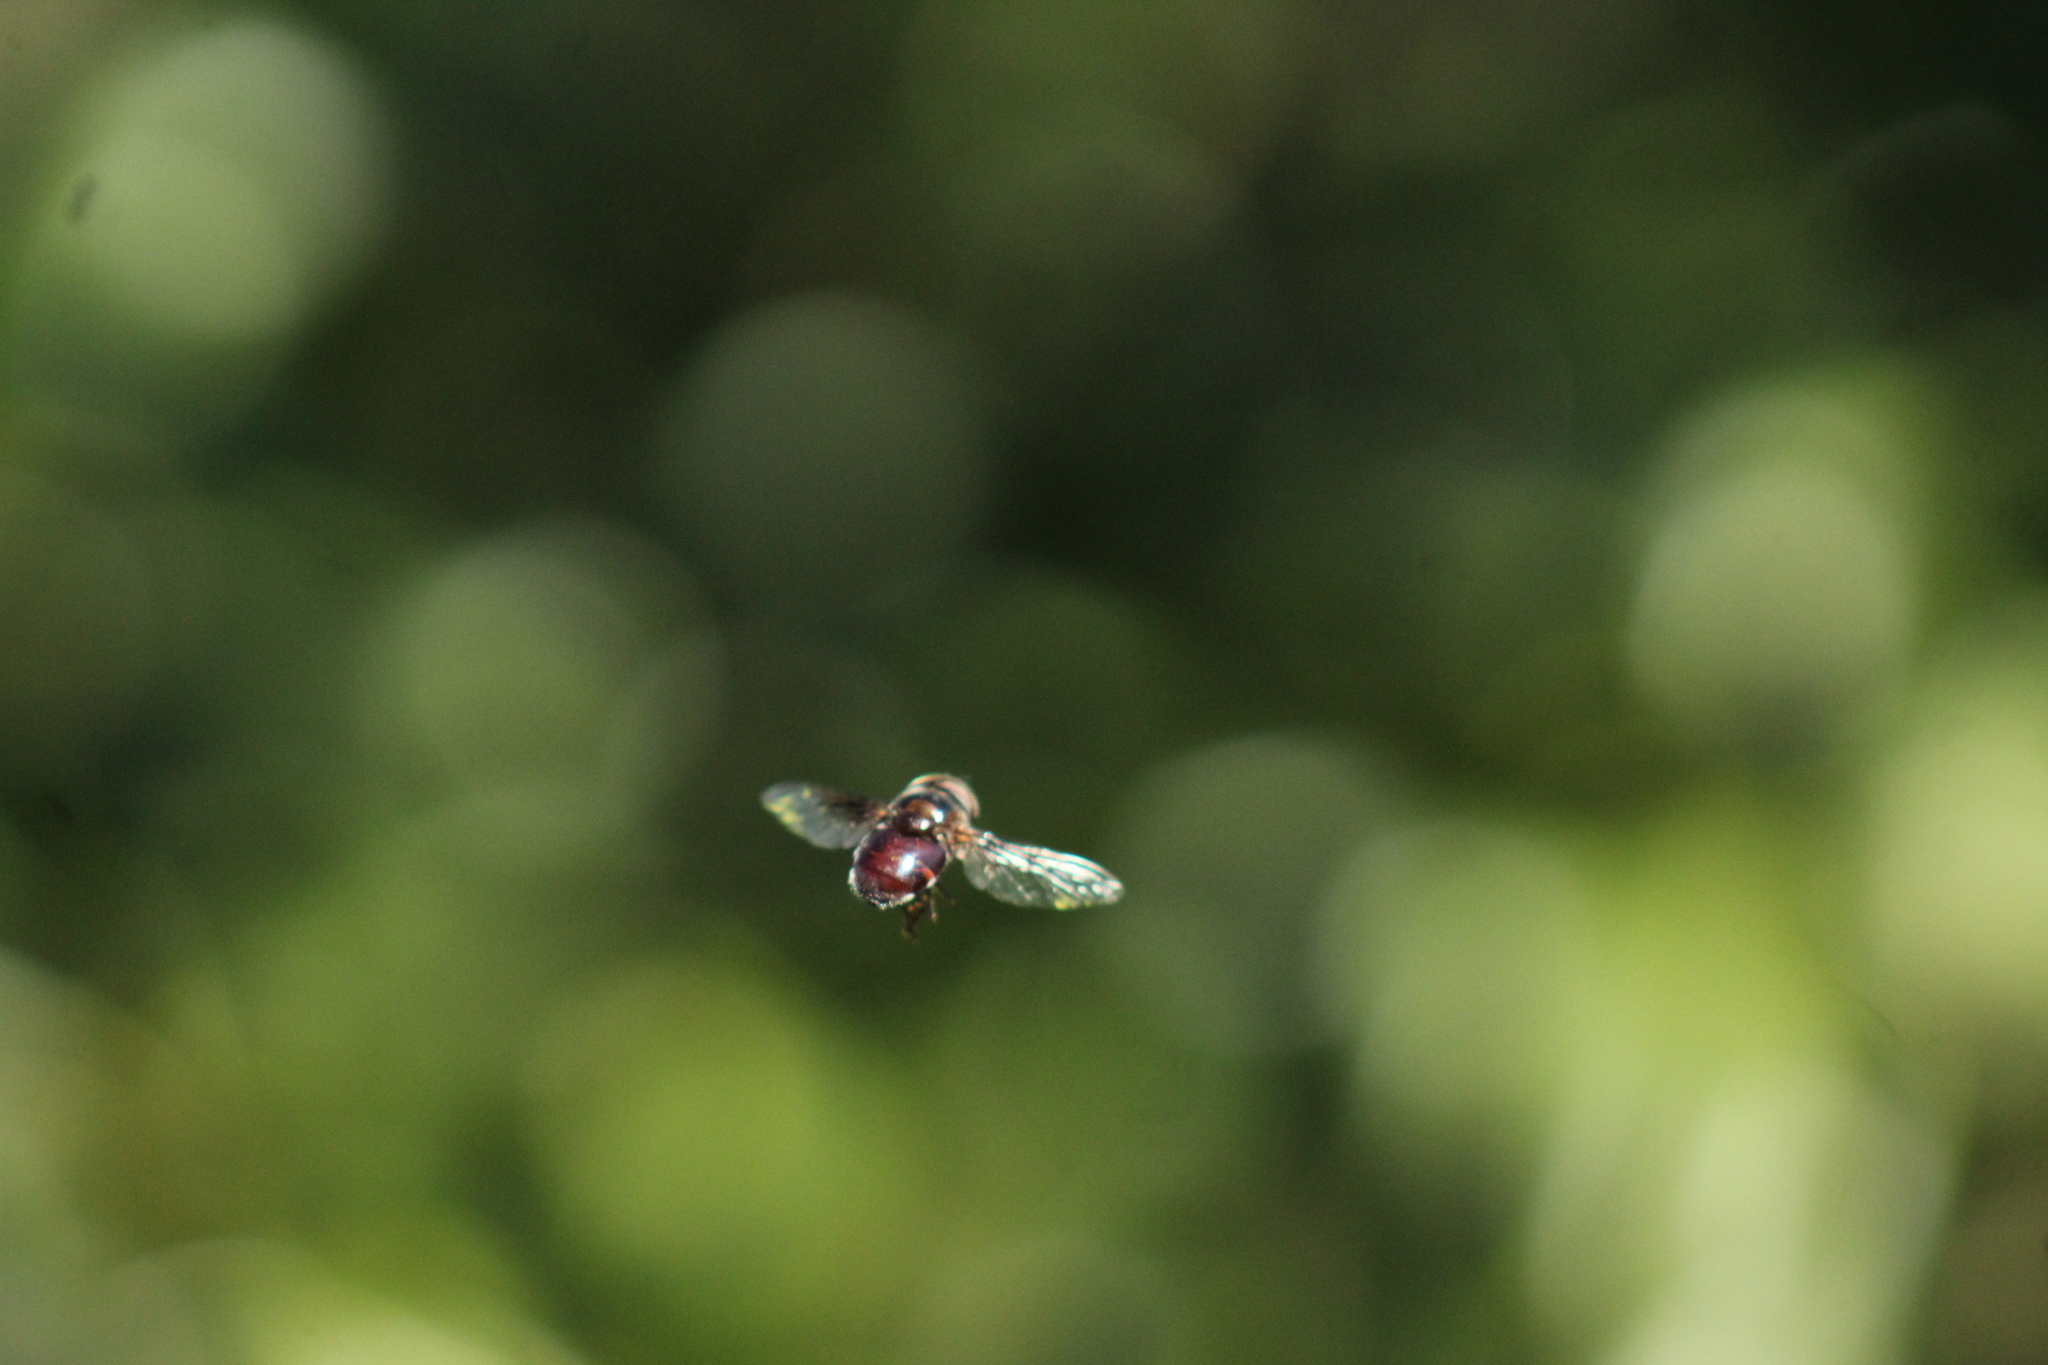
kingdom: Animalia
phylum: Arthropoda
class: Insecta
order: Diptera
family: Syrphidae
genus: Copestylum
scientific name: Copestylum posticum
